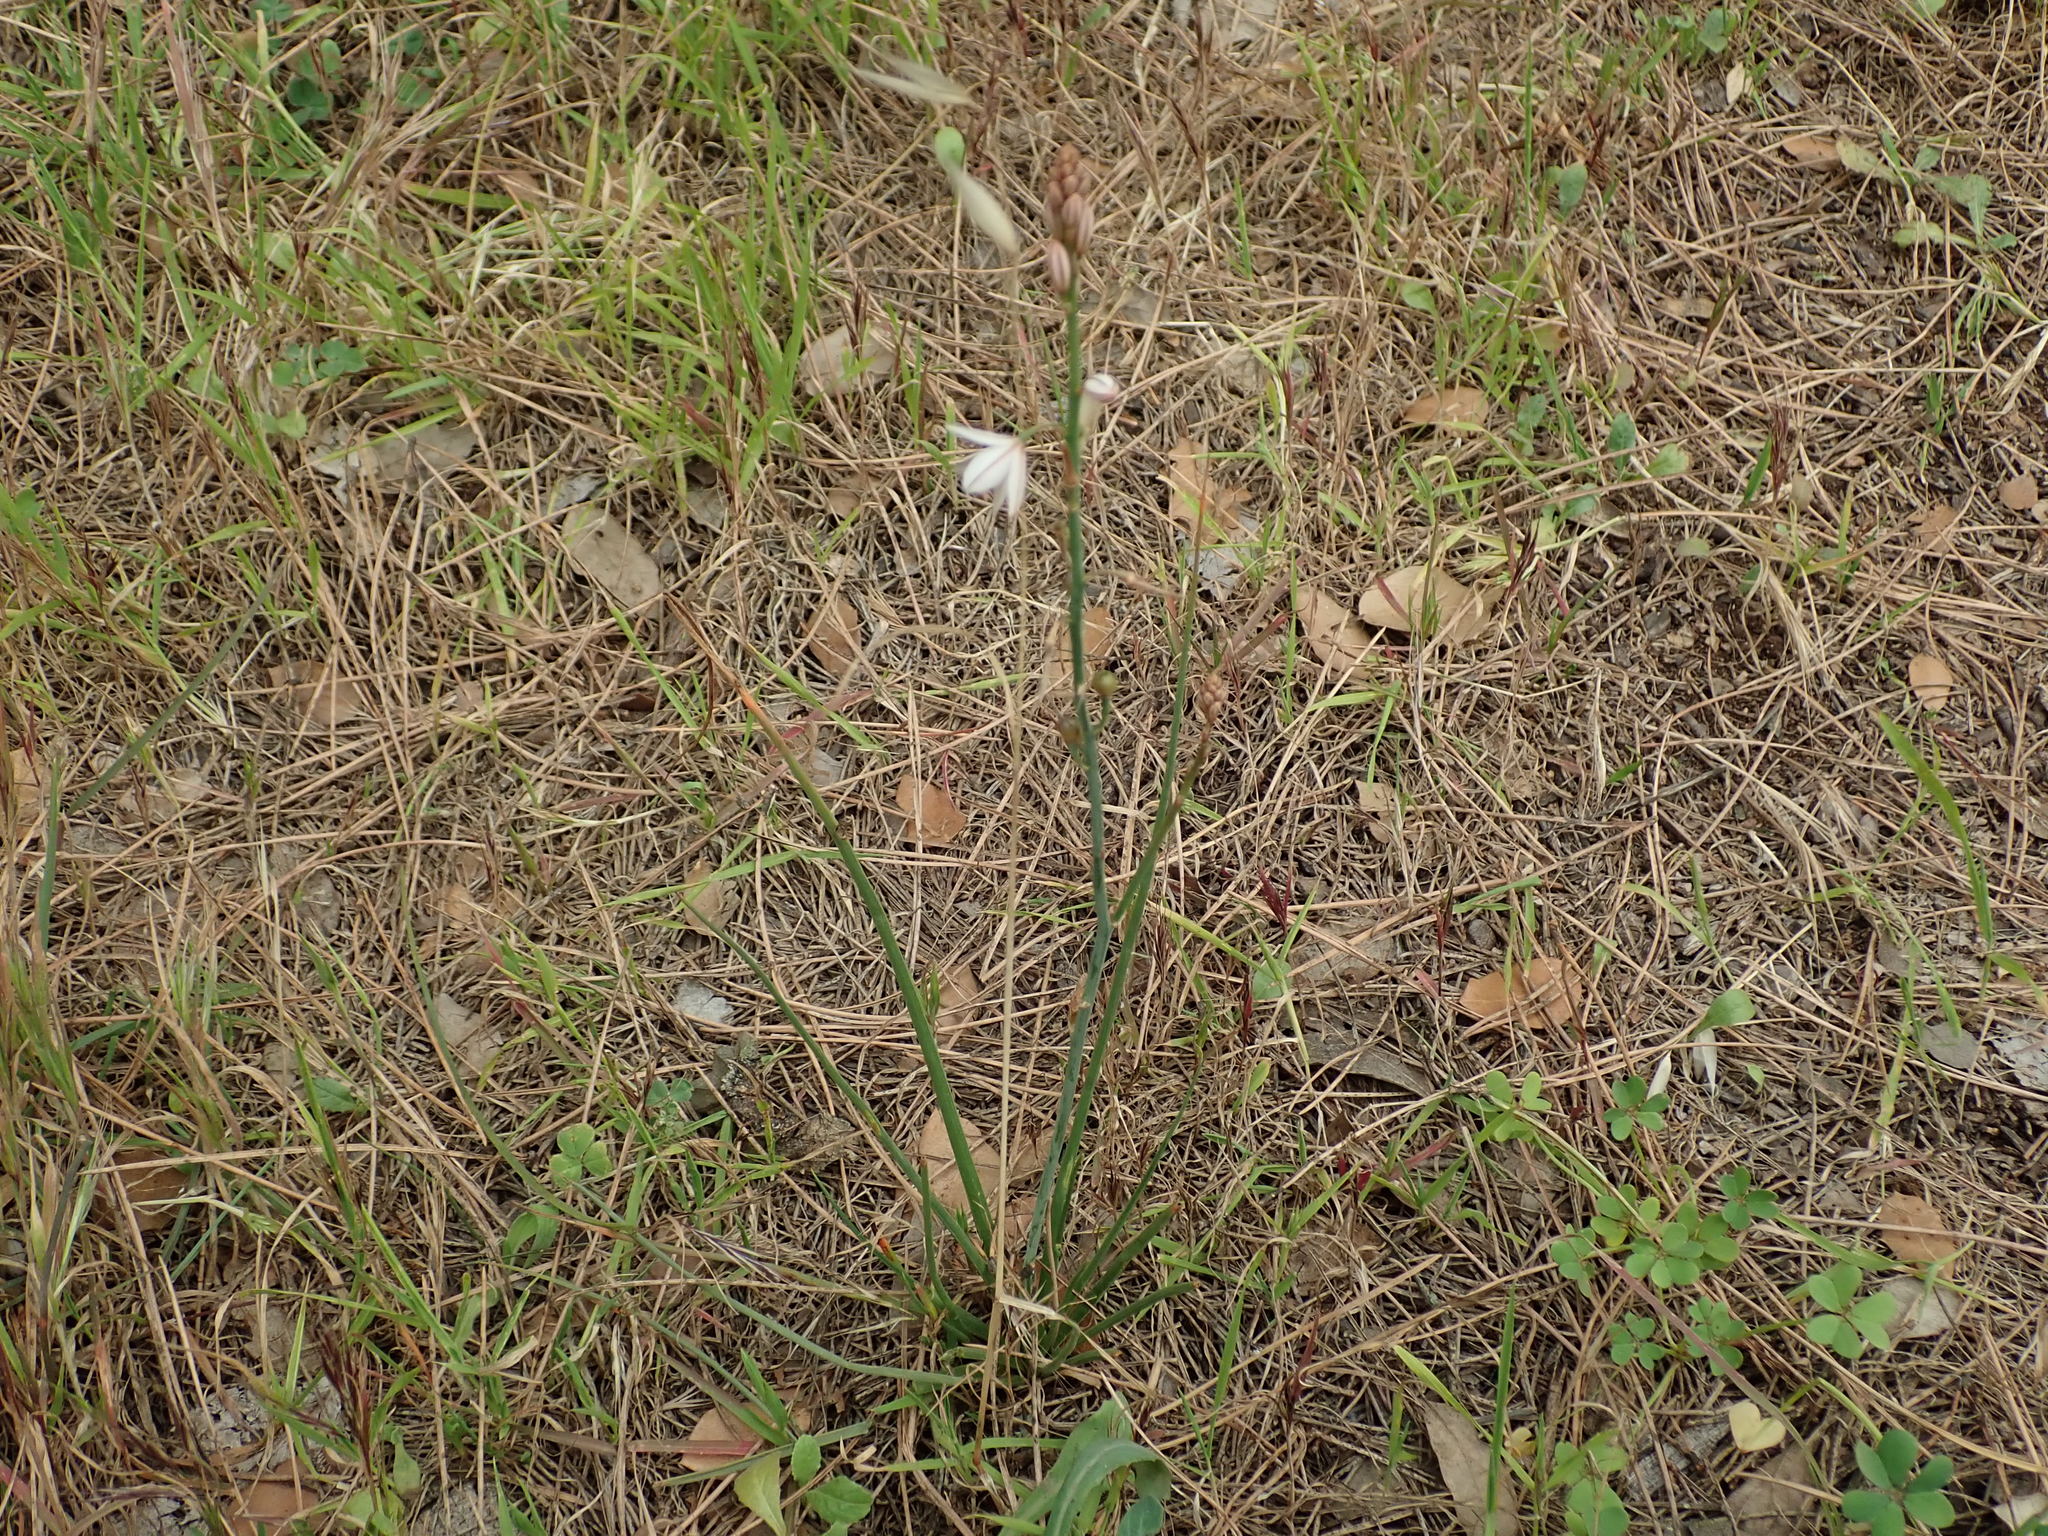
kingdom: Plantae
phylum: Tracheophyta
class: Liliopsida
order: Asparagales
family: Asphodelaceae
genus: Asphodelus
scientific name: Asphodelus fistulosus
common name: Onionweed
